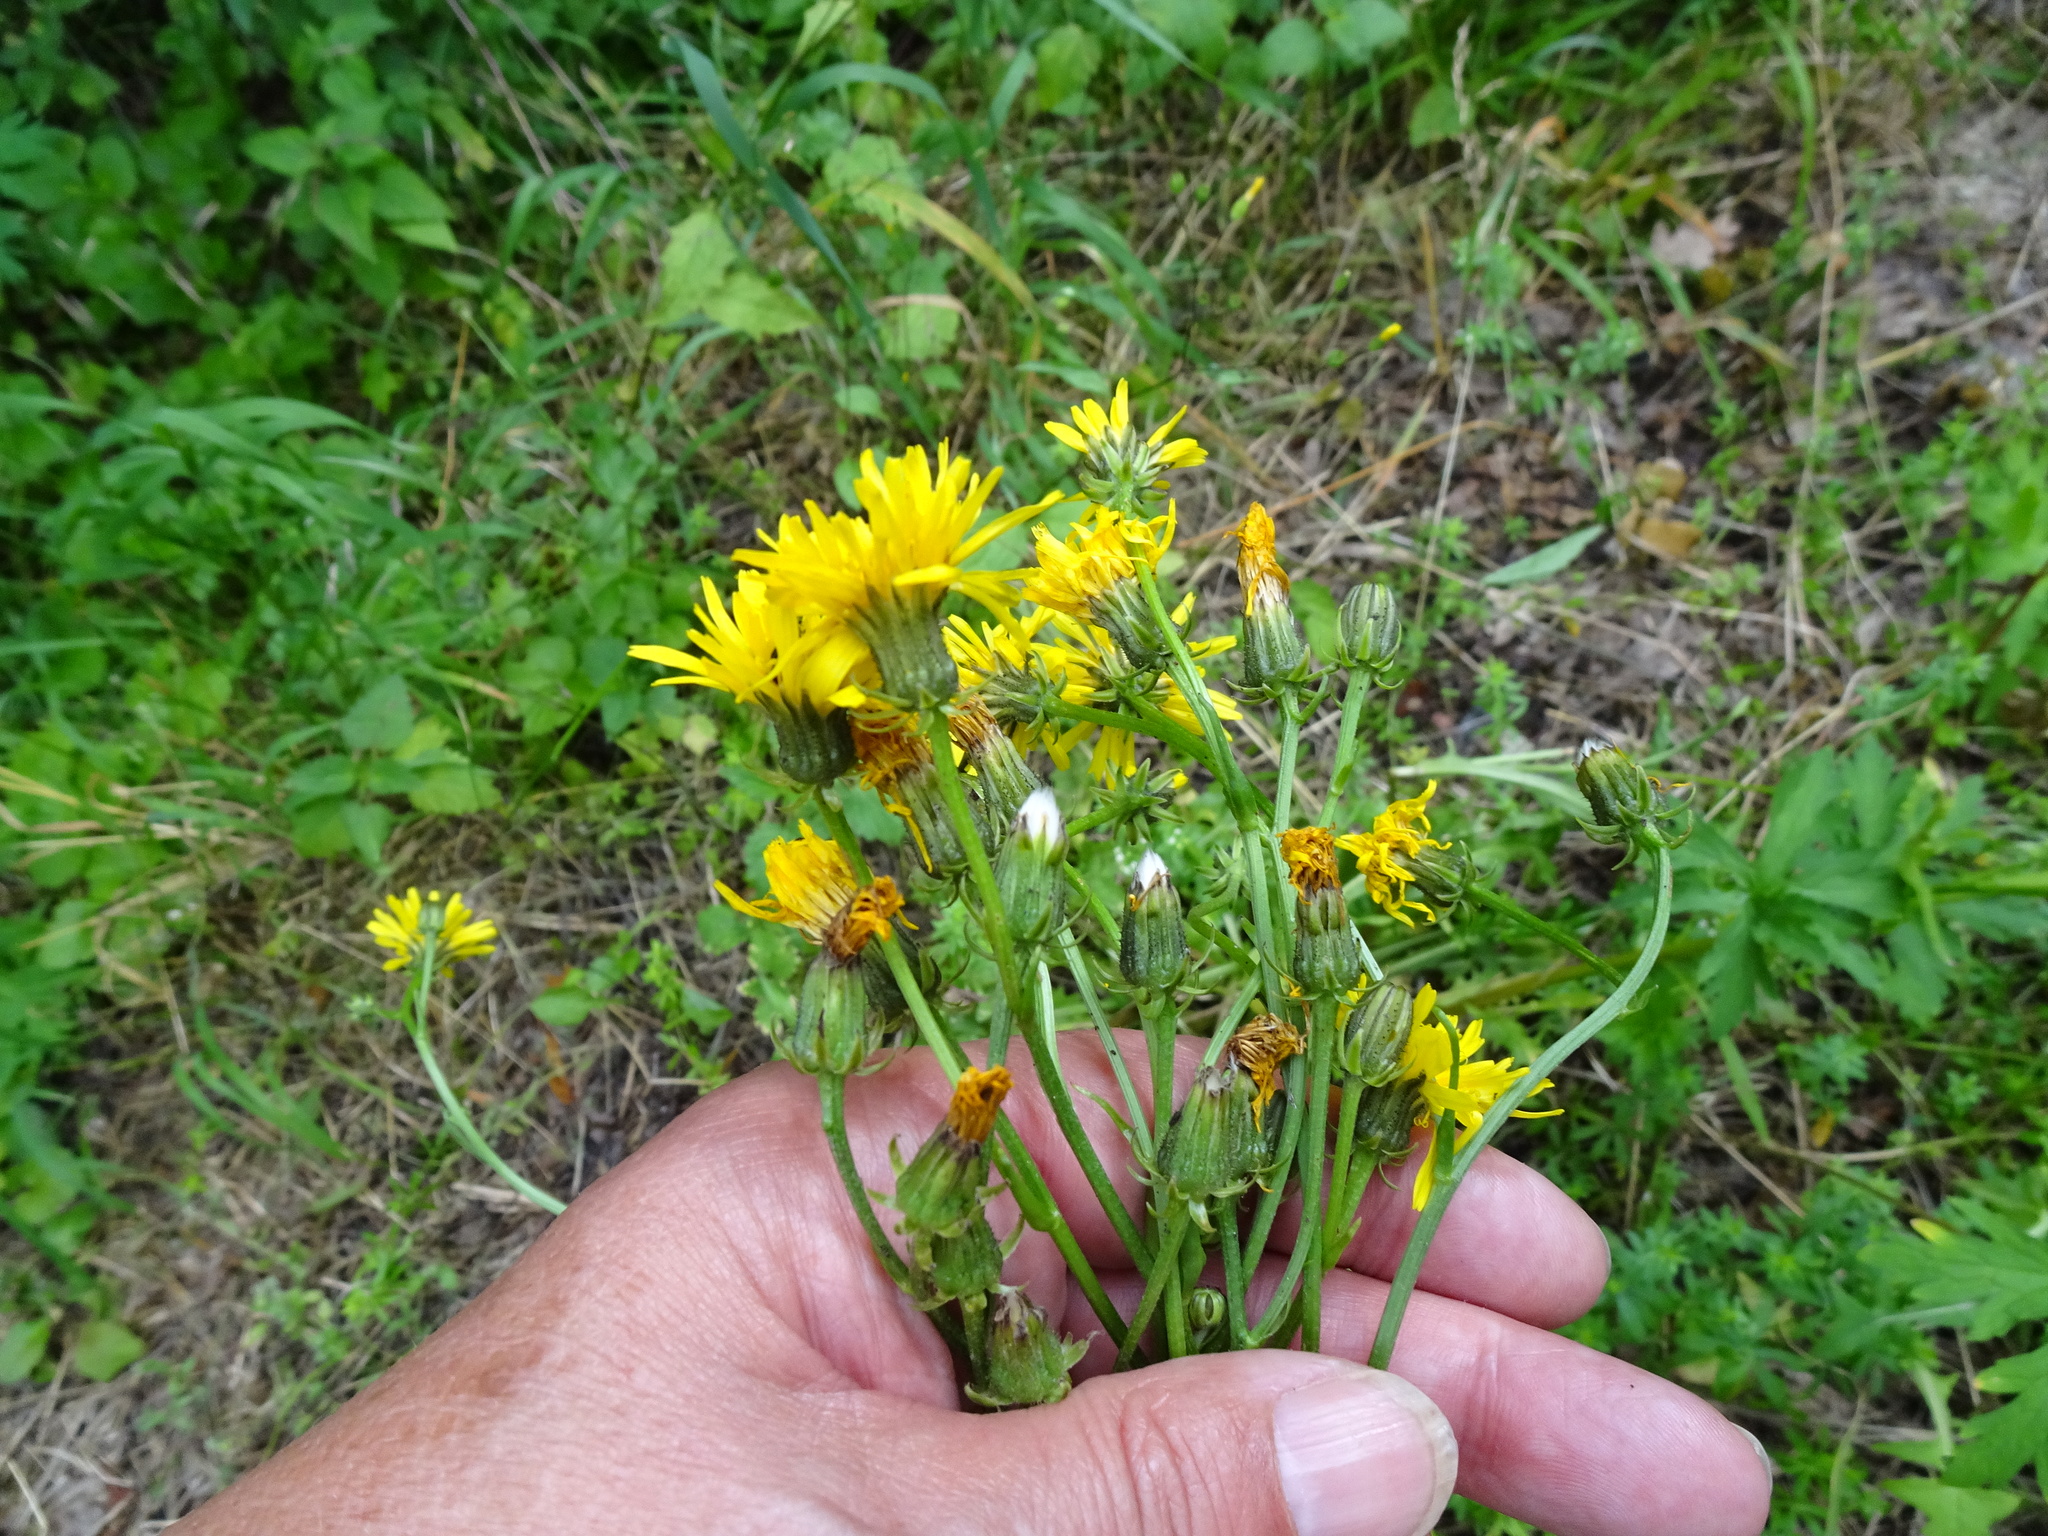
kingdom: Plantae
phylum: Tracheophyta
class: Magnoliopsida
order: Asterales
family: Asteraceae
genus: Crepis
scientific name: Crepis biennis
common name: Rough hawk's-beard
